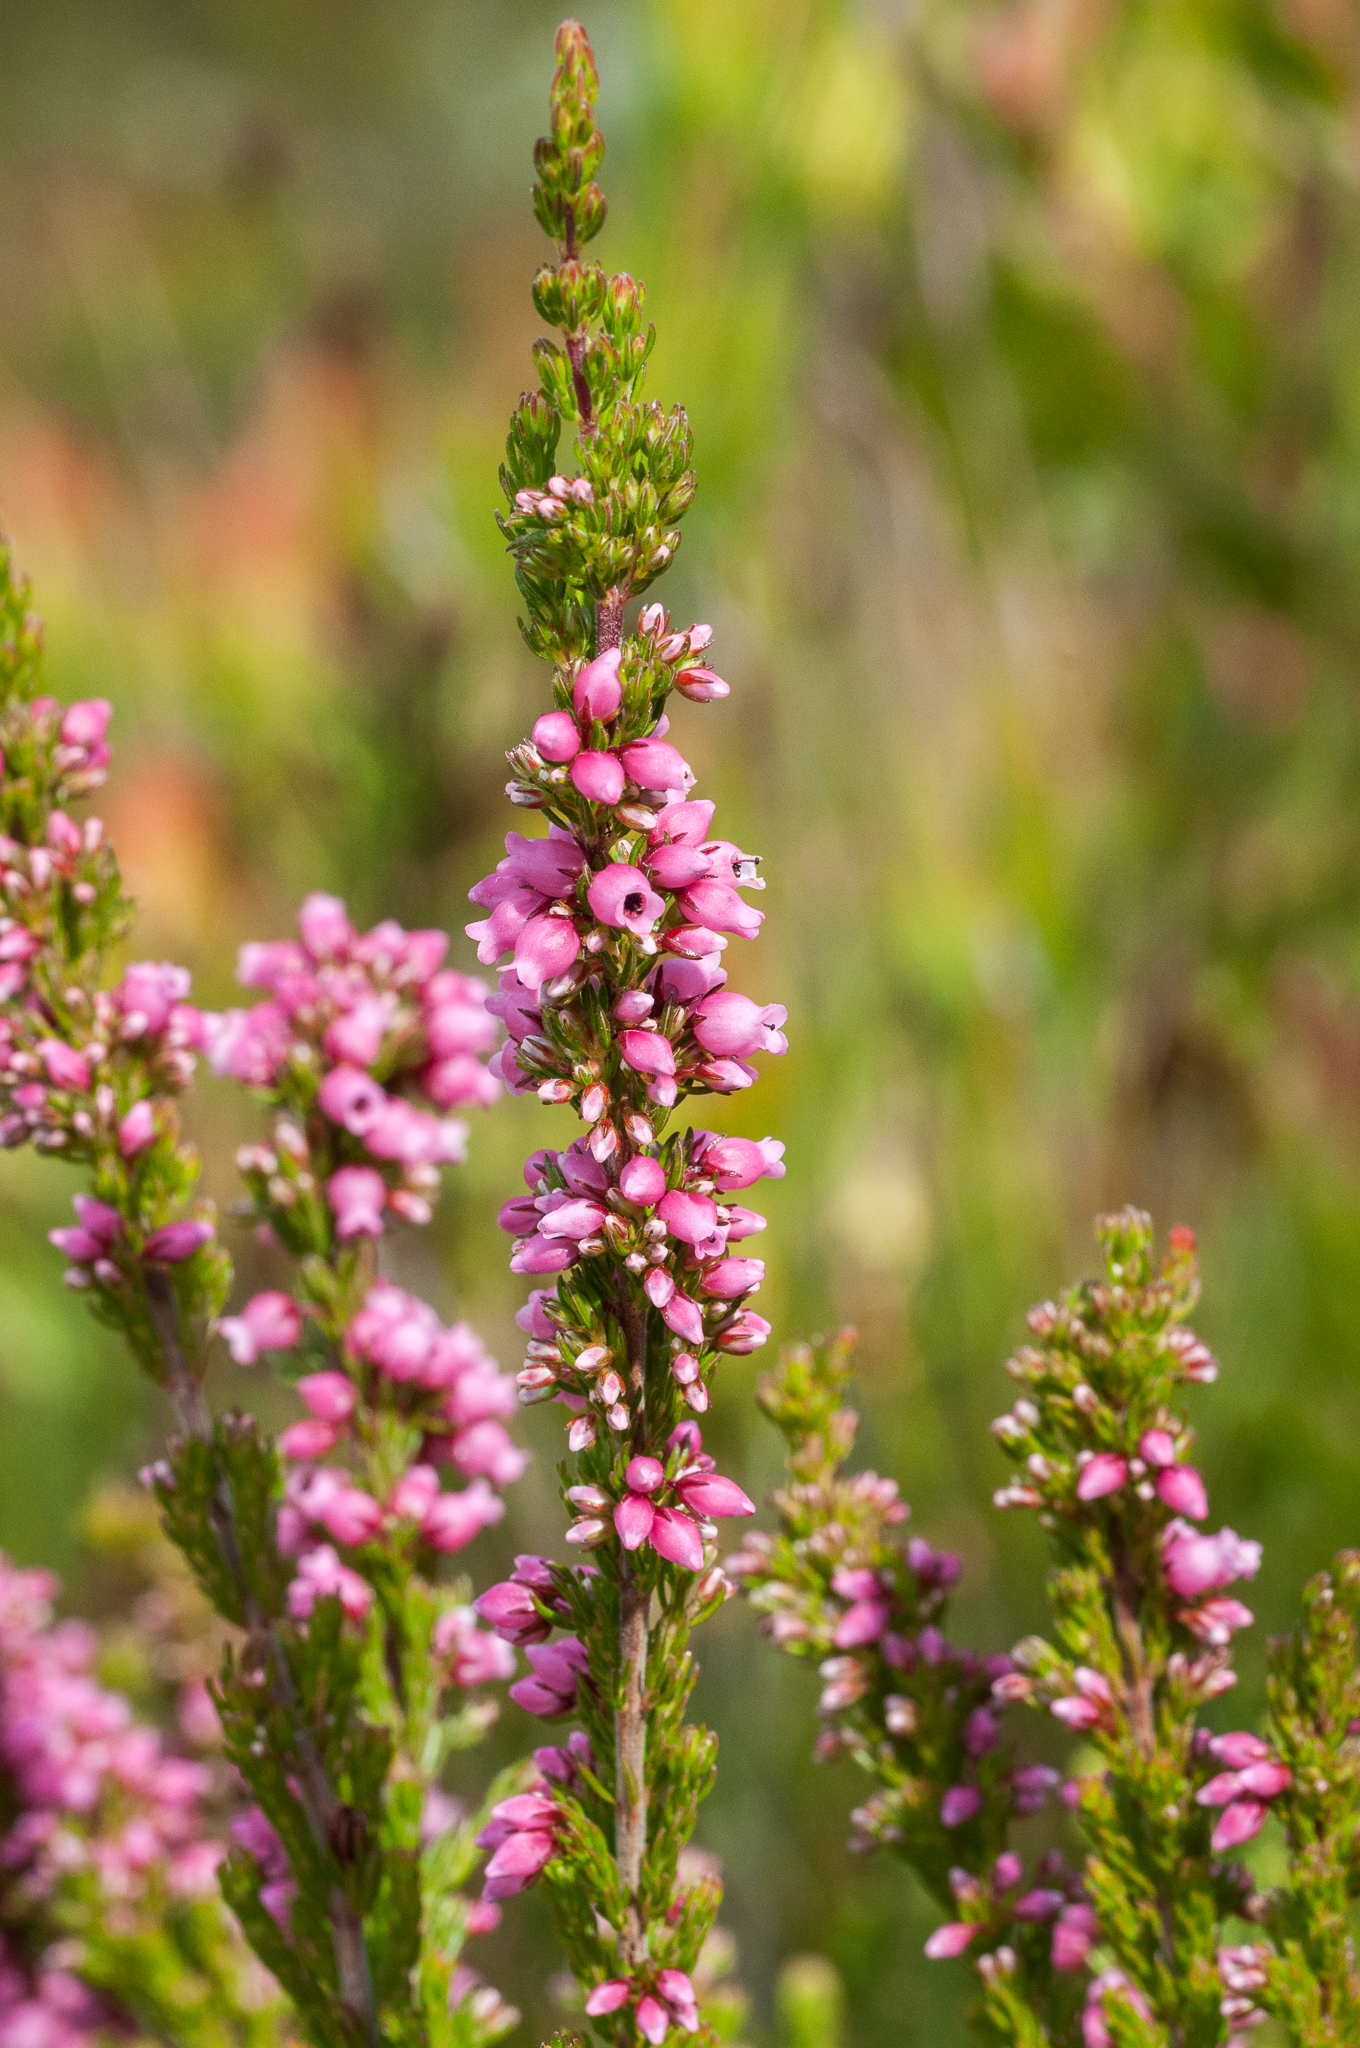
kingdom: Plantae
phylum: Tracheophyta
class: Magnoliopsida
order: Ericales
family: Ericaceae
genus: Erica
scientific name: Erica pulchella
